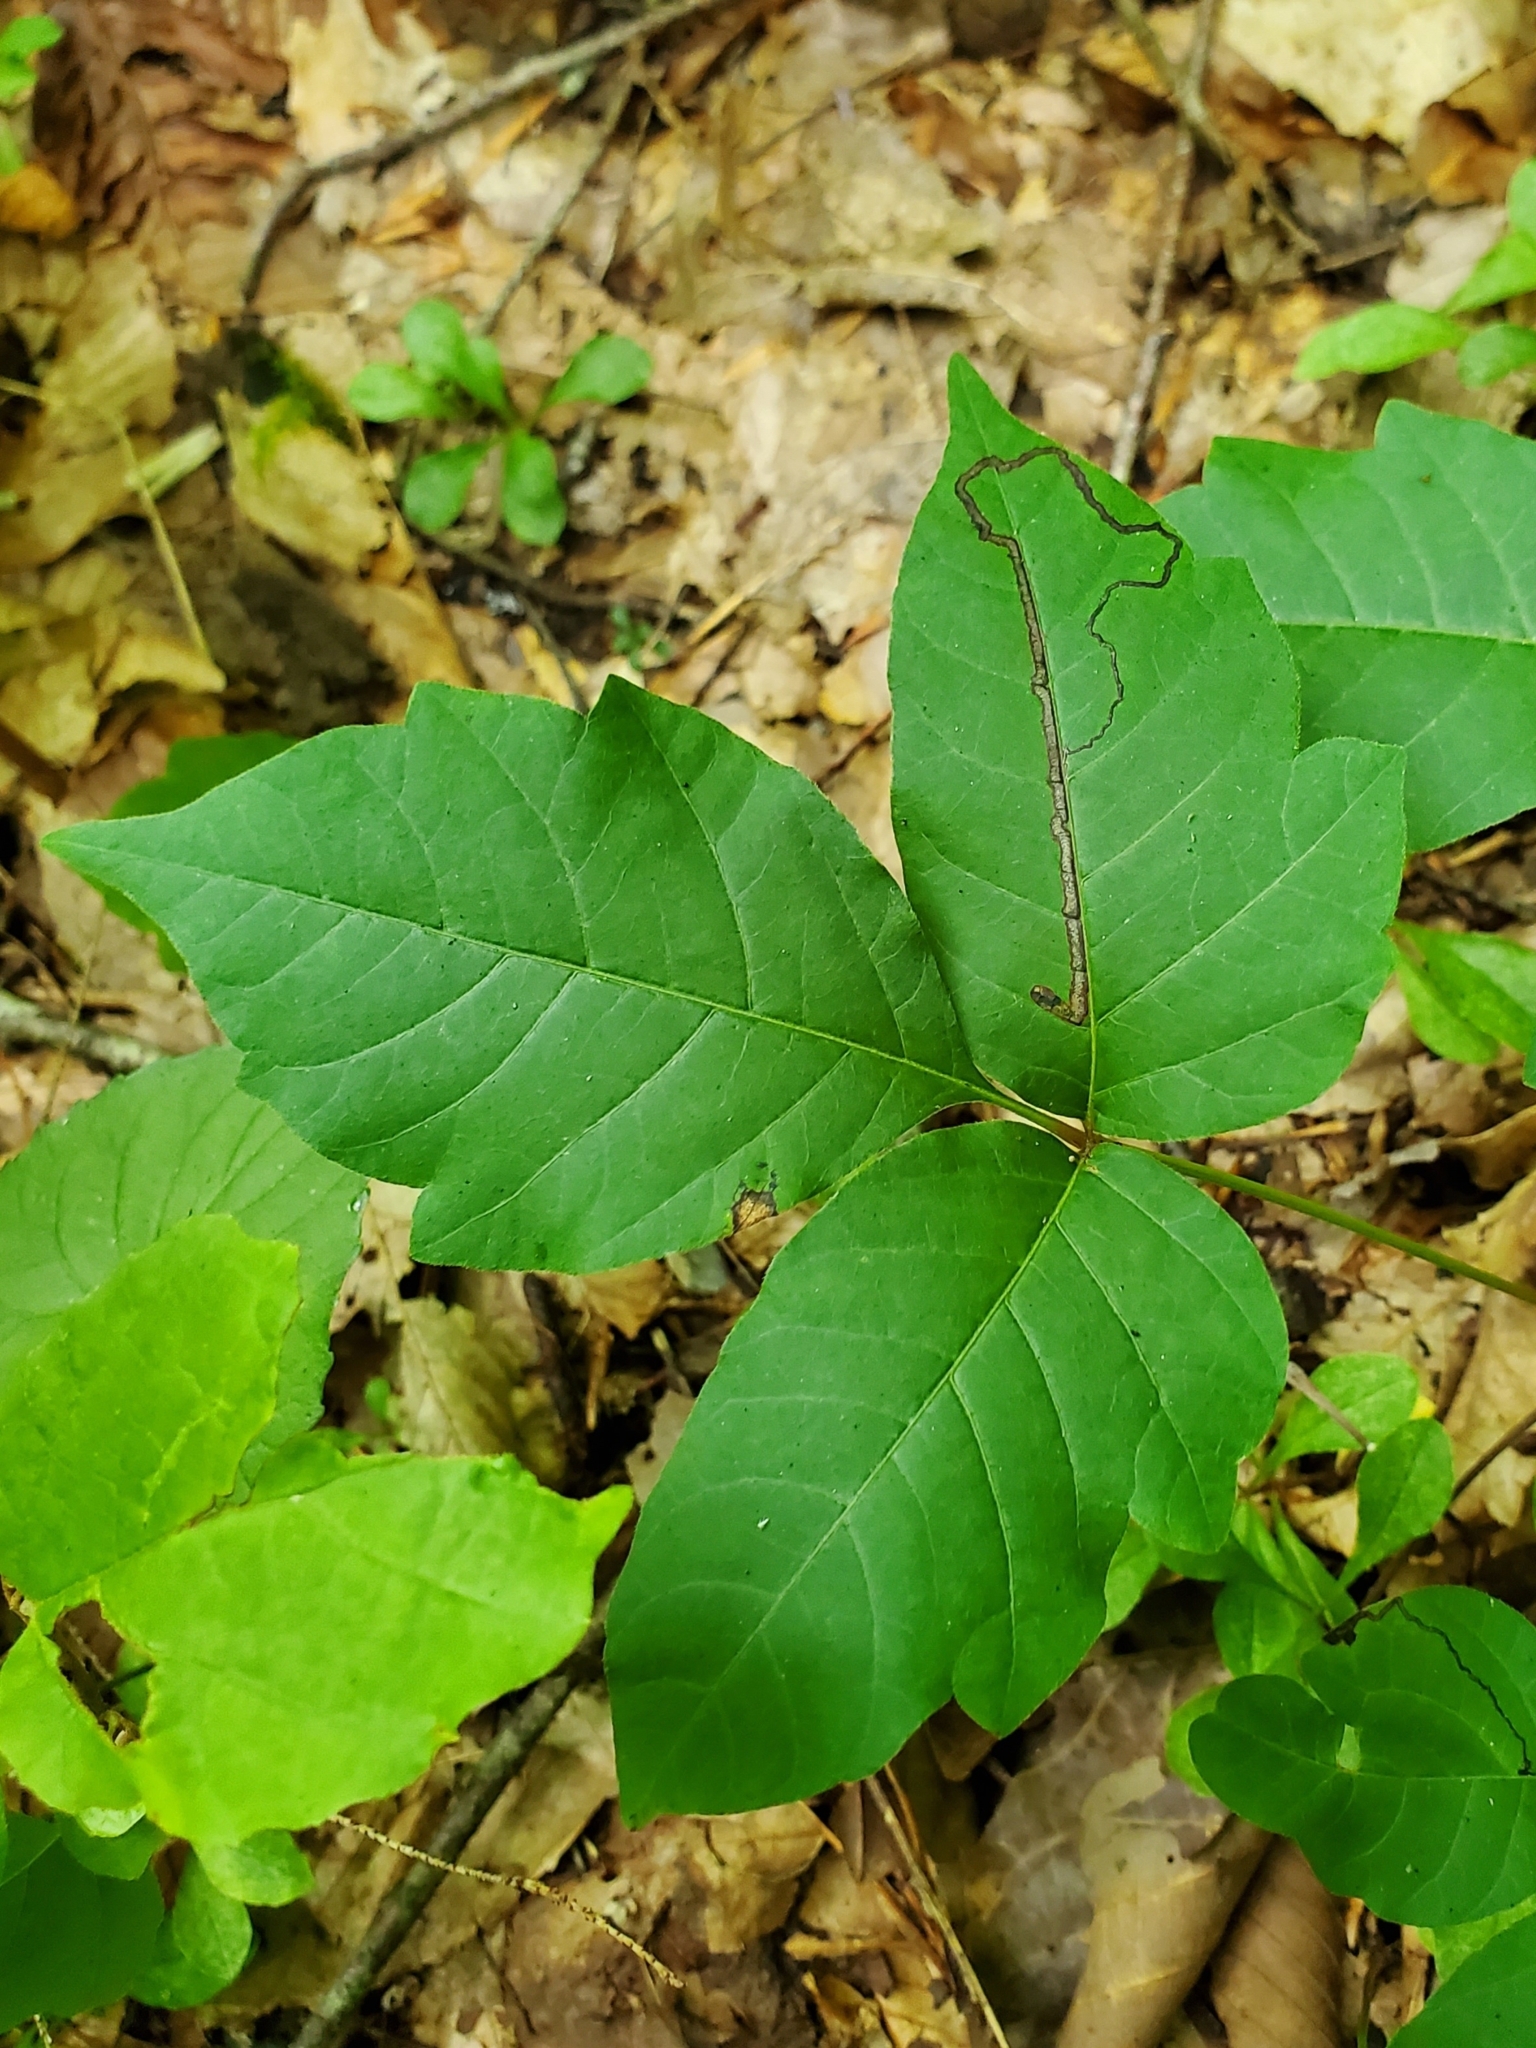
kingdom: Animalia
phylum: Arthropoda
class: Insecta
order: Lepidoptera
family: Nepticulidae
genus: Stigmella
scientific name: Stigmella rhoifoliella
